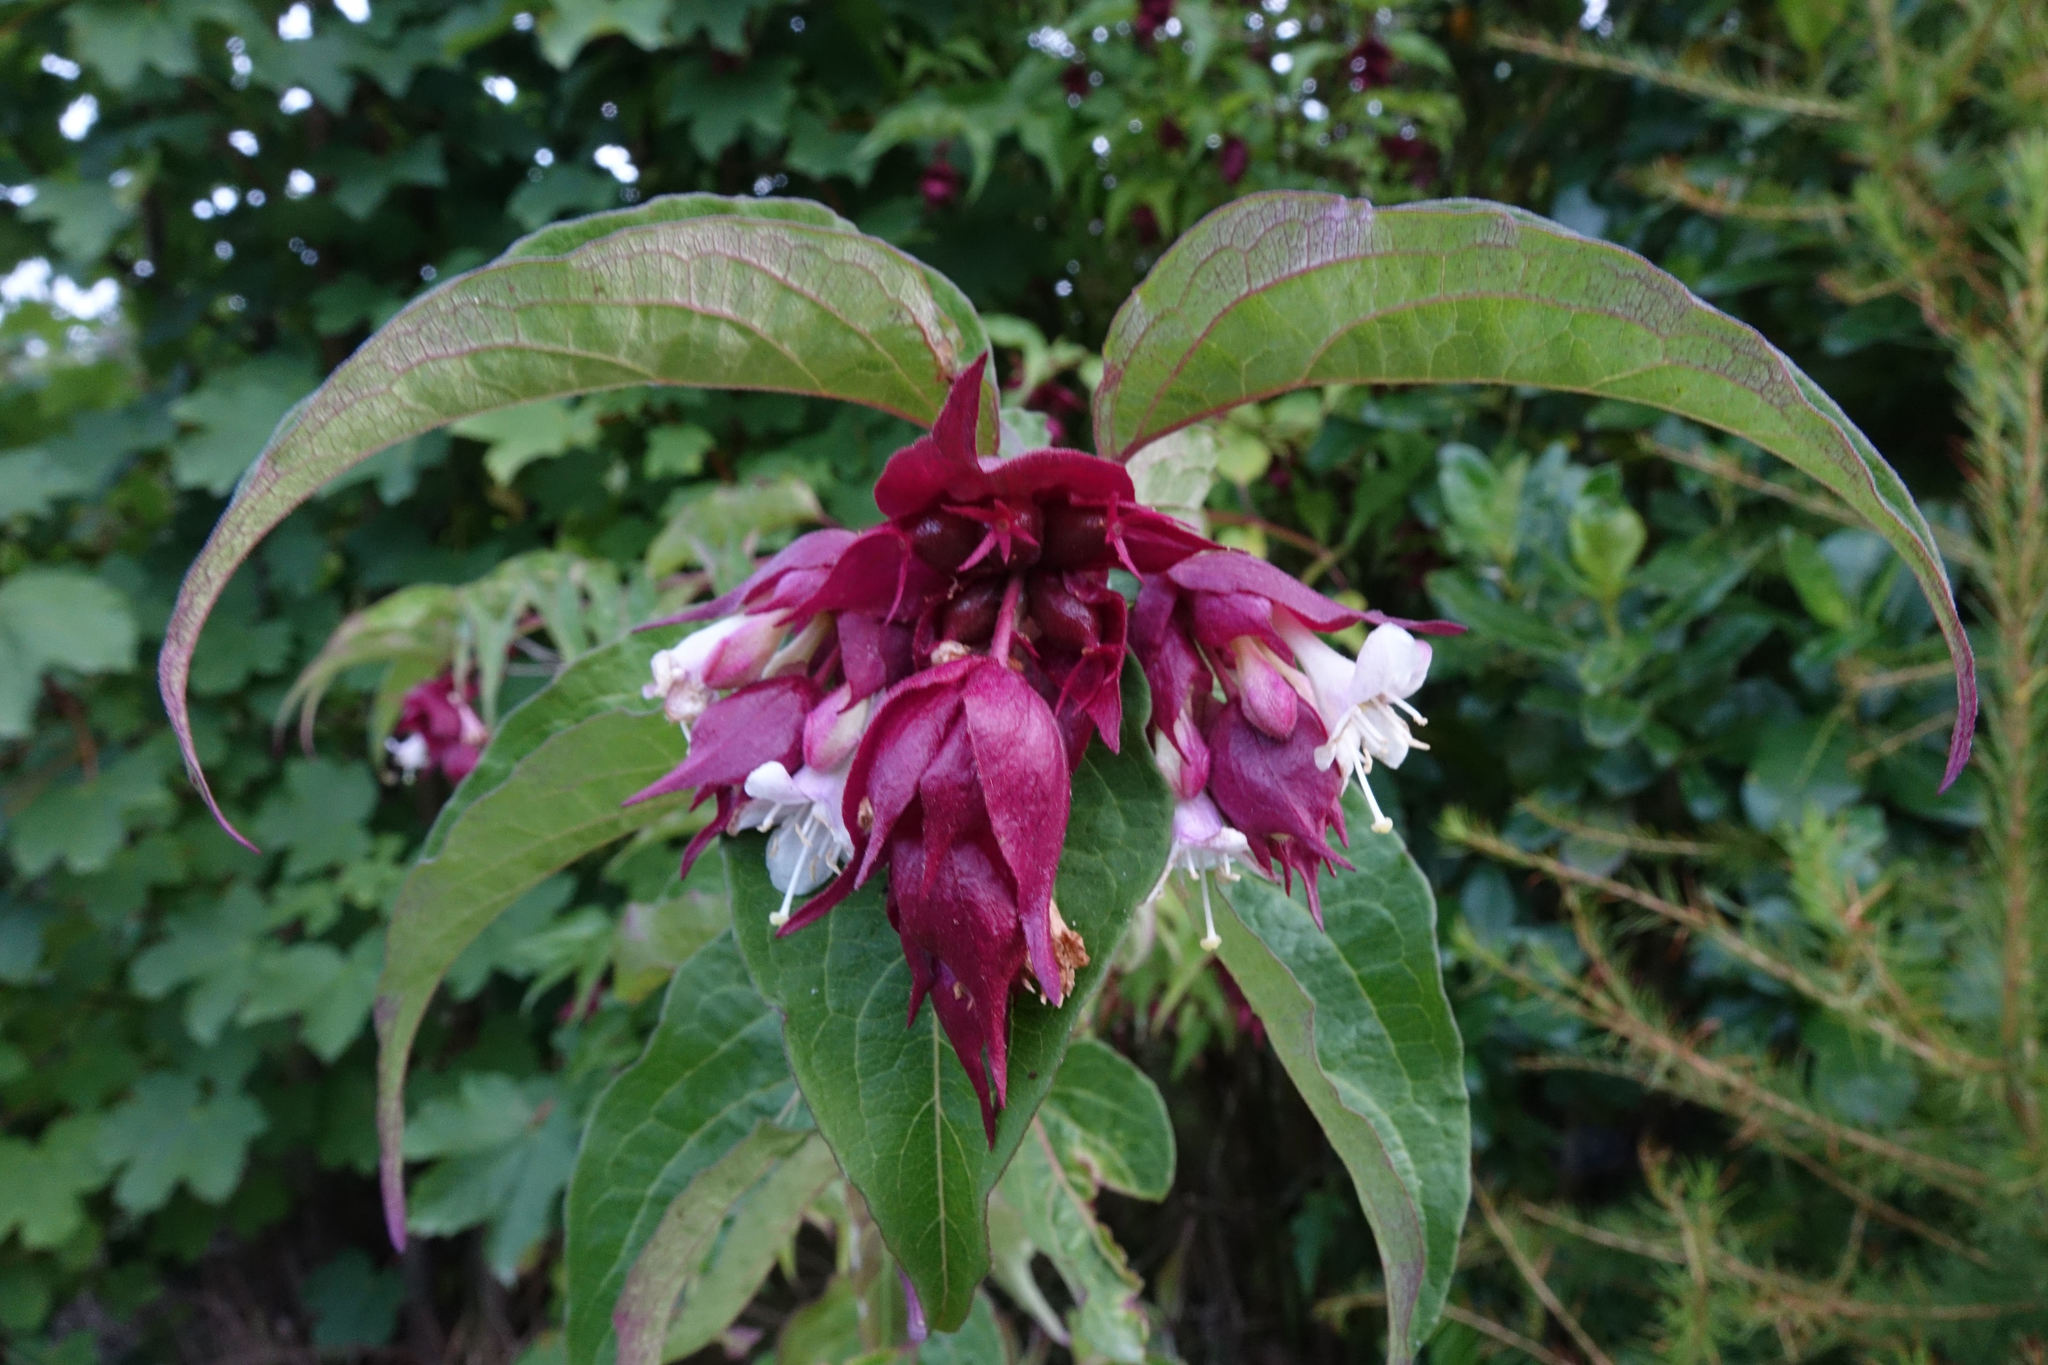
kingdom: Plantae
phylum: Tracheophyta
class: Magnoliopsida
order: Dipsacales
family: Caprifoliaceae
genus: Leycesteria
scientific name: Leycesteria formosa
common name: Himalayan honeysuckle
